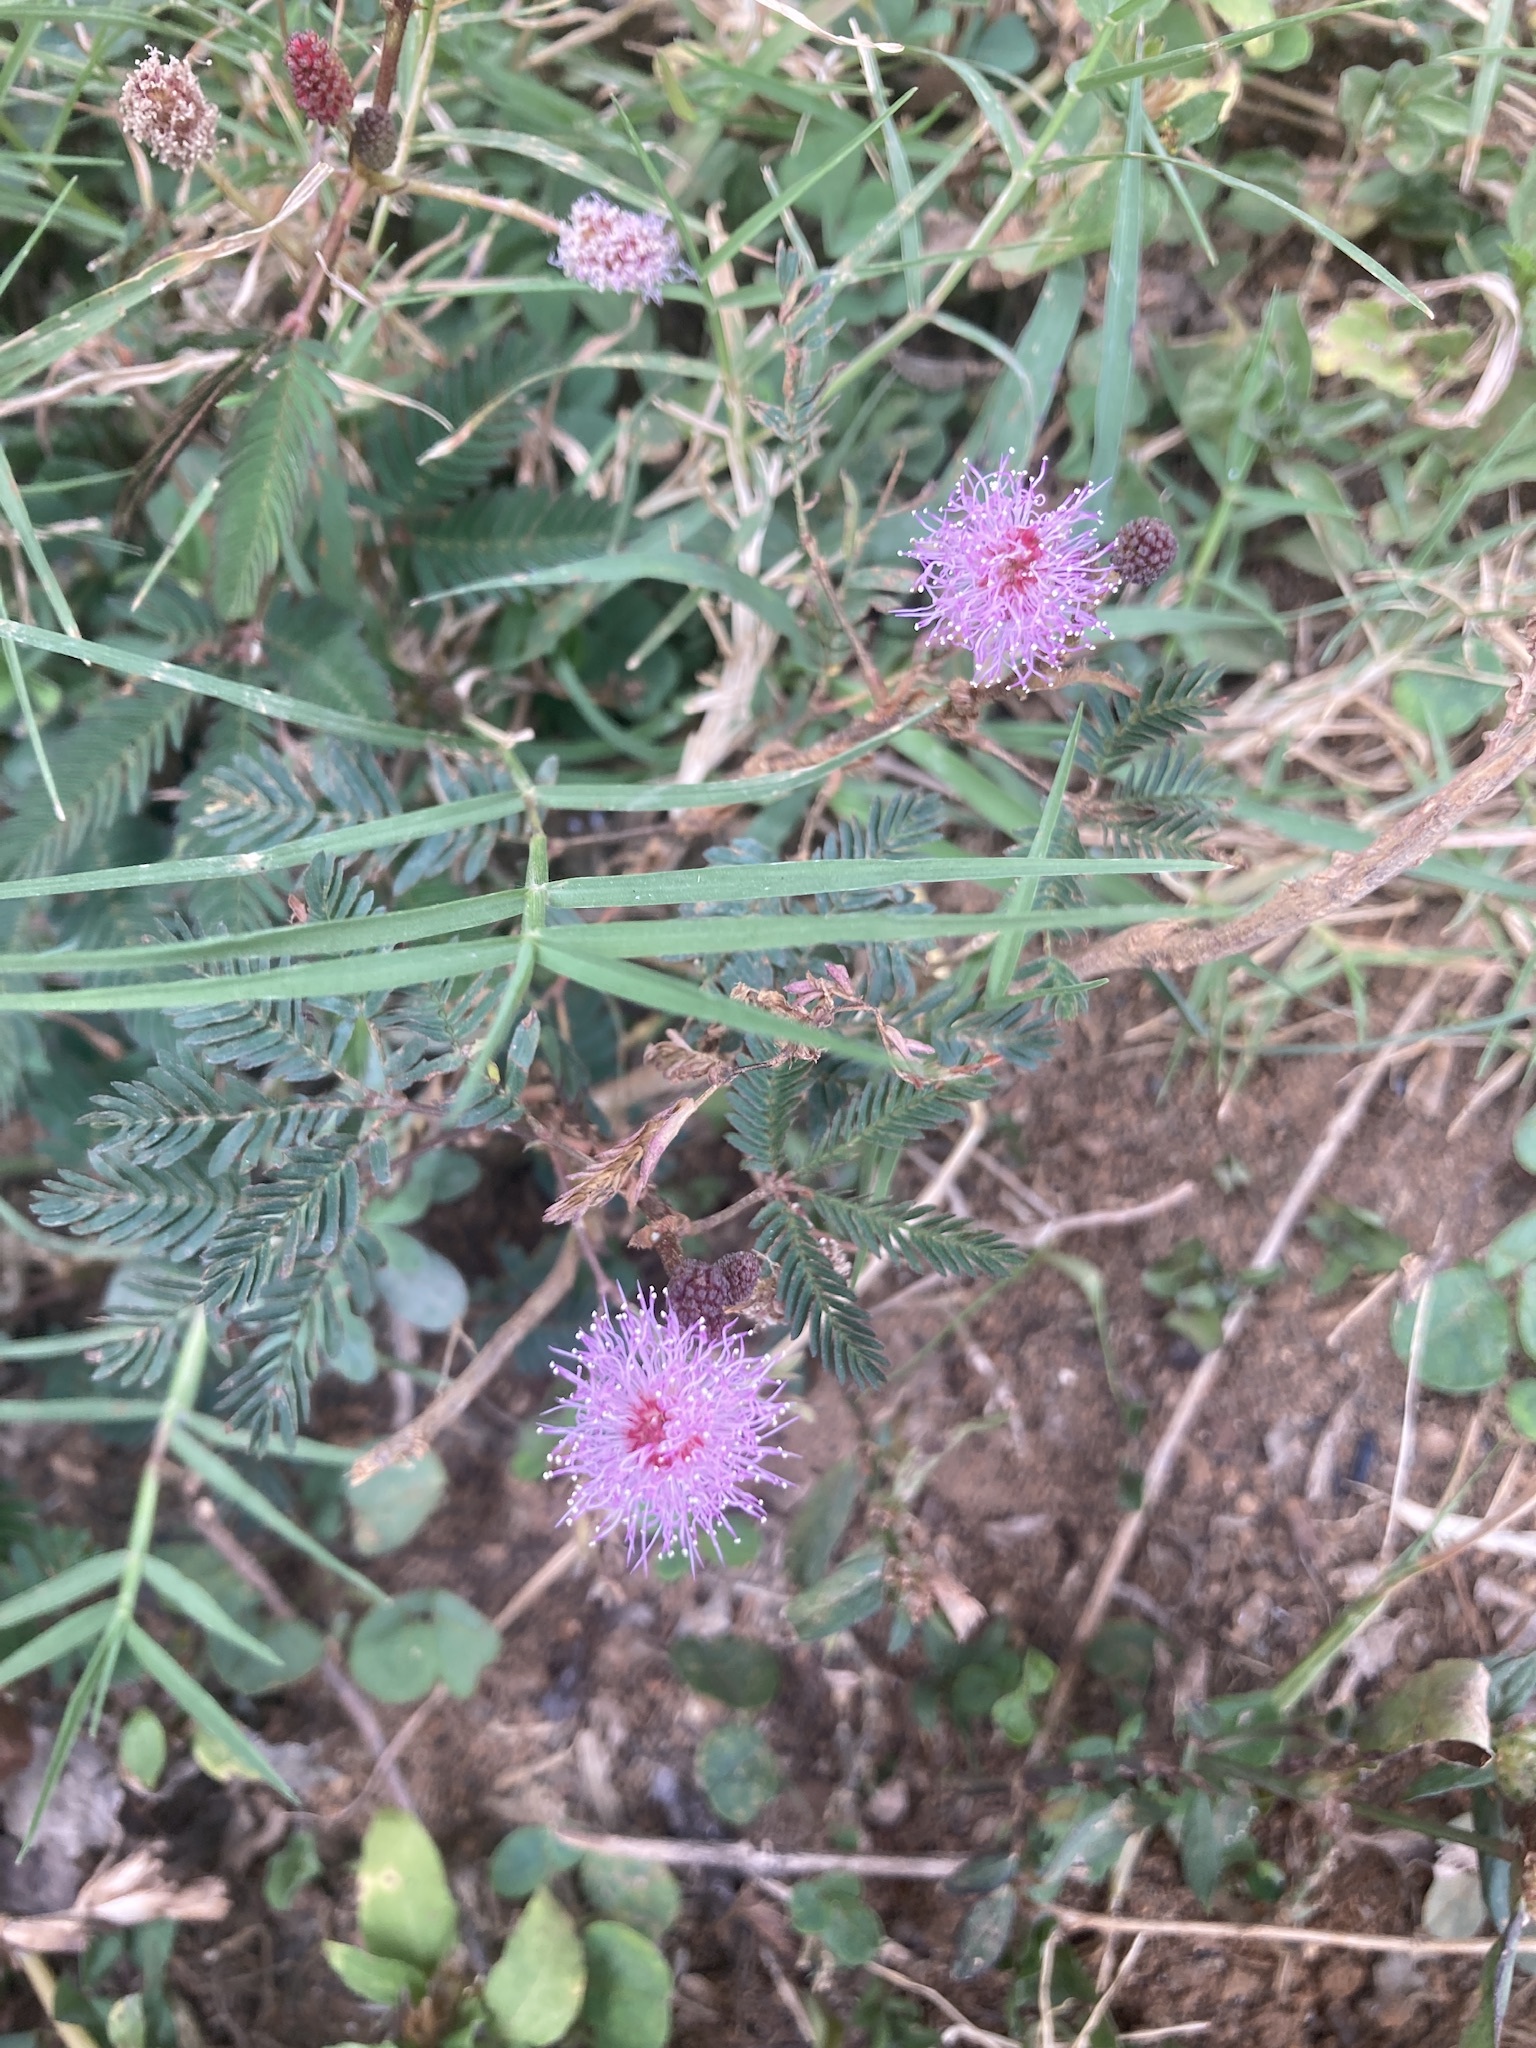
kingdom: Plantae
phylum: Tracheophyta
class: Magnoliopsida
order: Fabales
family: Fabaceae
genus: Mimosa
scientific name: Mimosa pudica
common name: Sensitive plant
